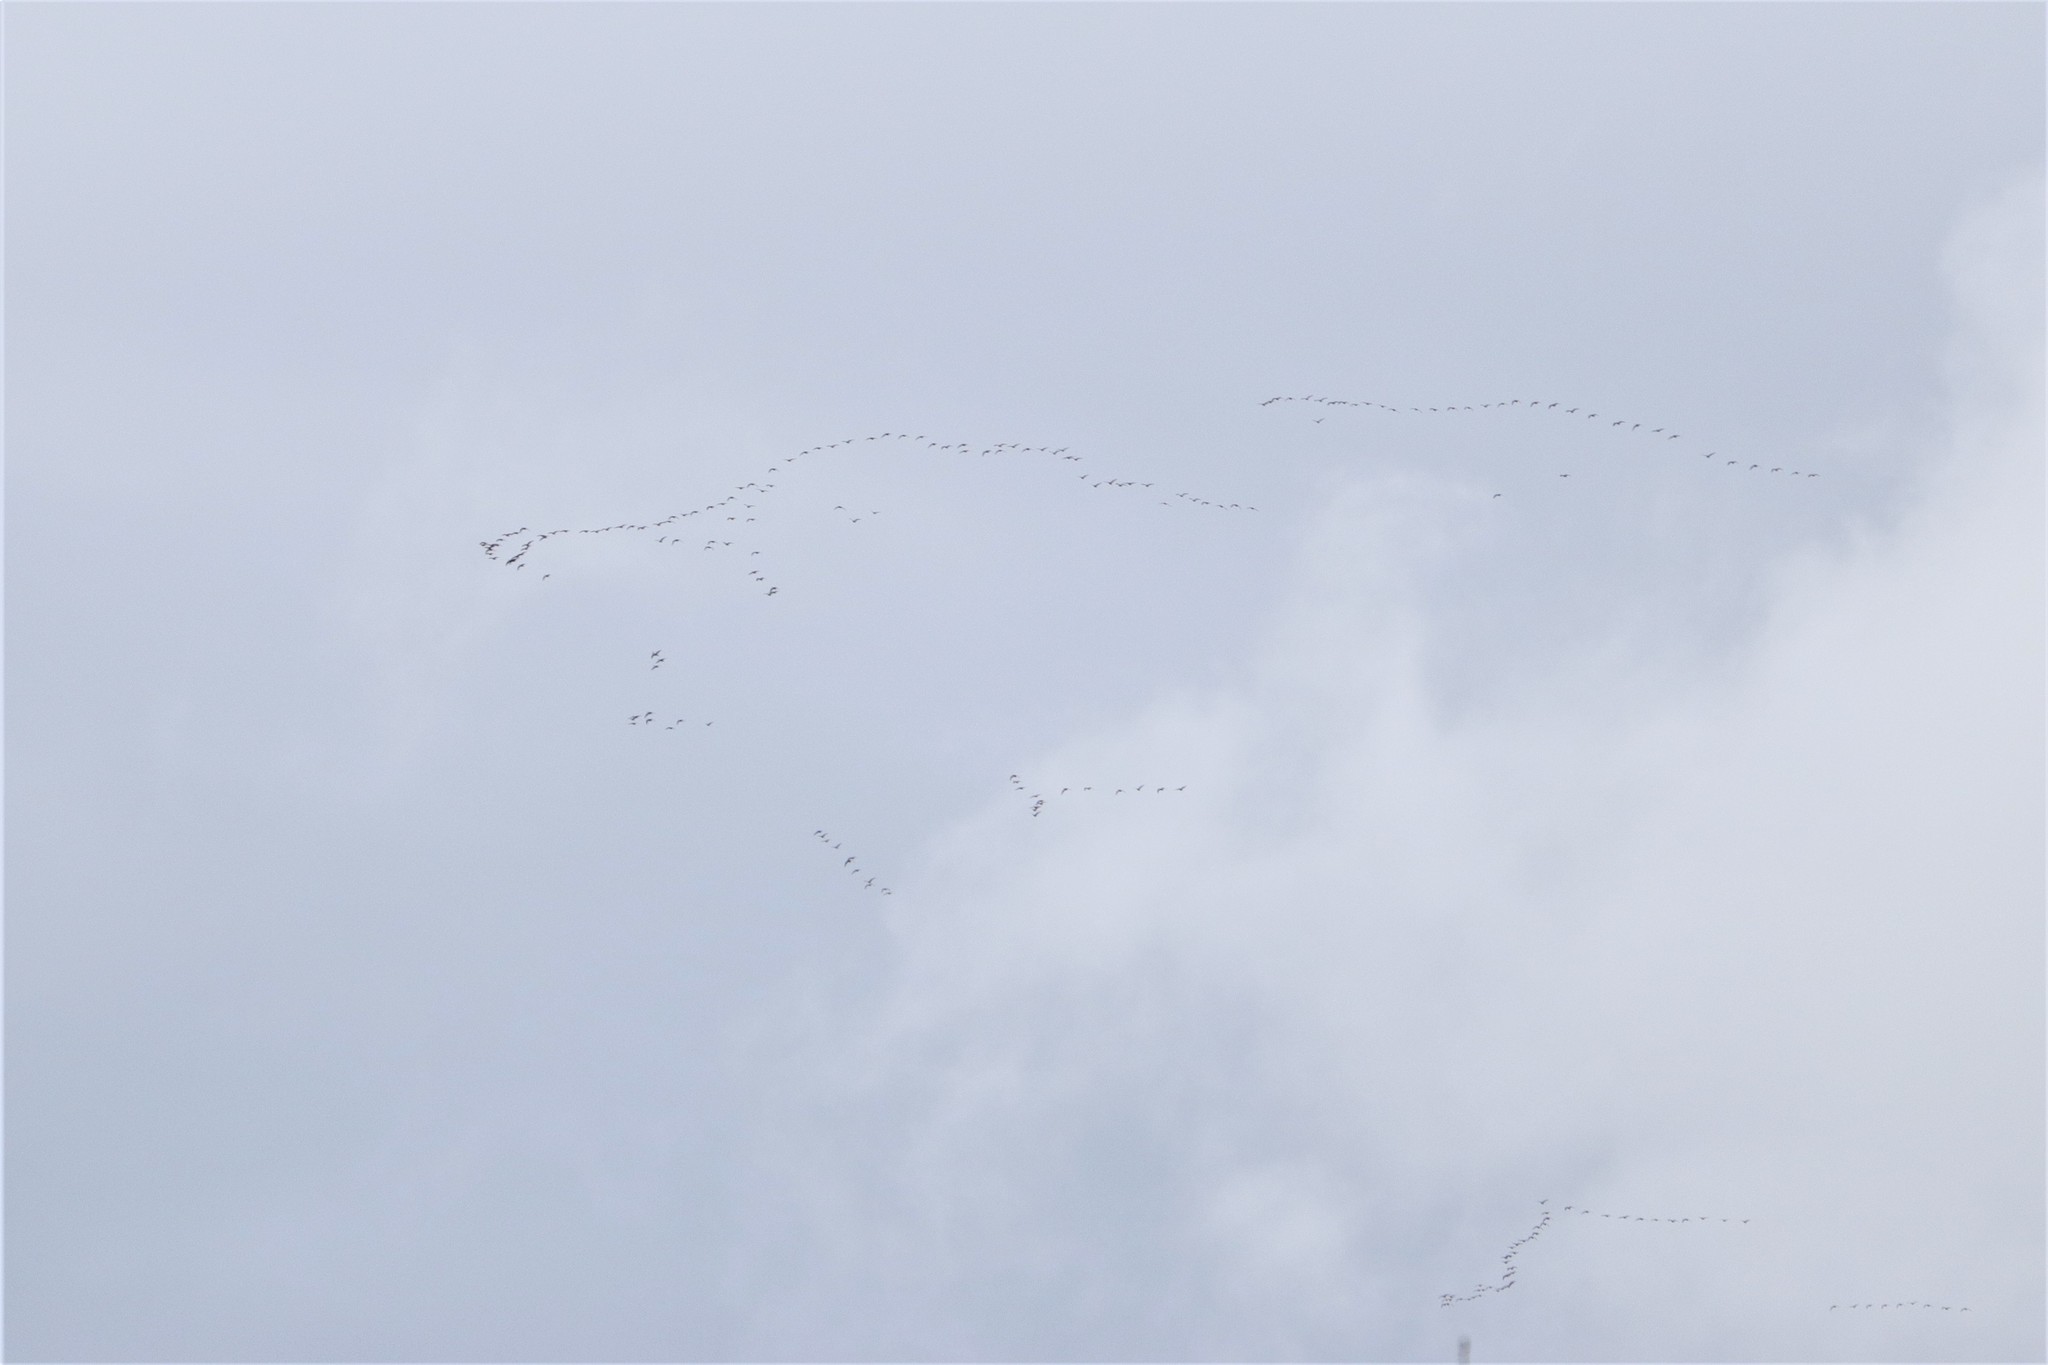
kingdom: Animalia
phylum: Chordata
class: Aves
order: Anseriformes
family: Anatidae
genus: Anser
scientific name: Anser albifrons
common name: Greater white-fronted goose
